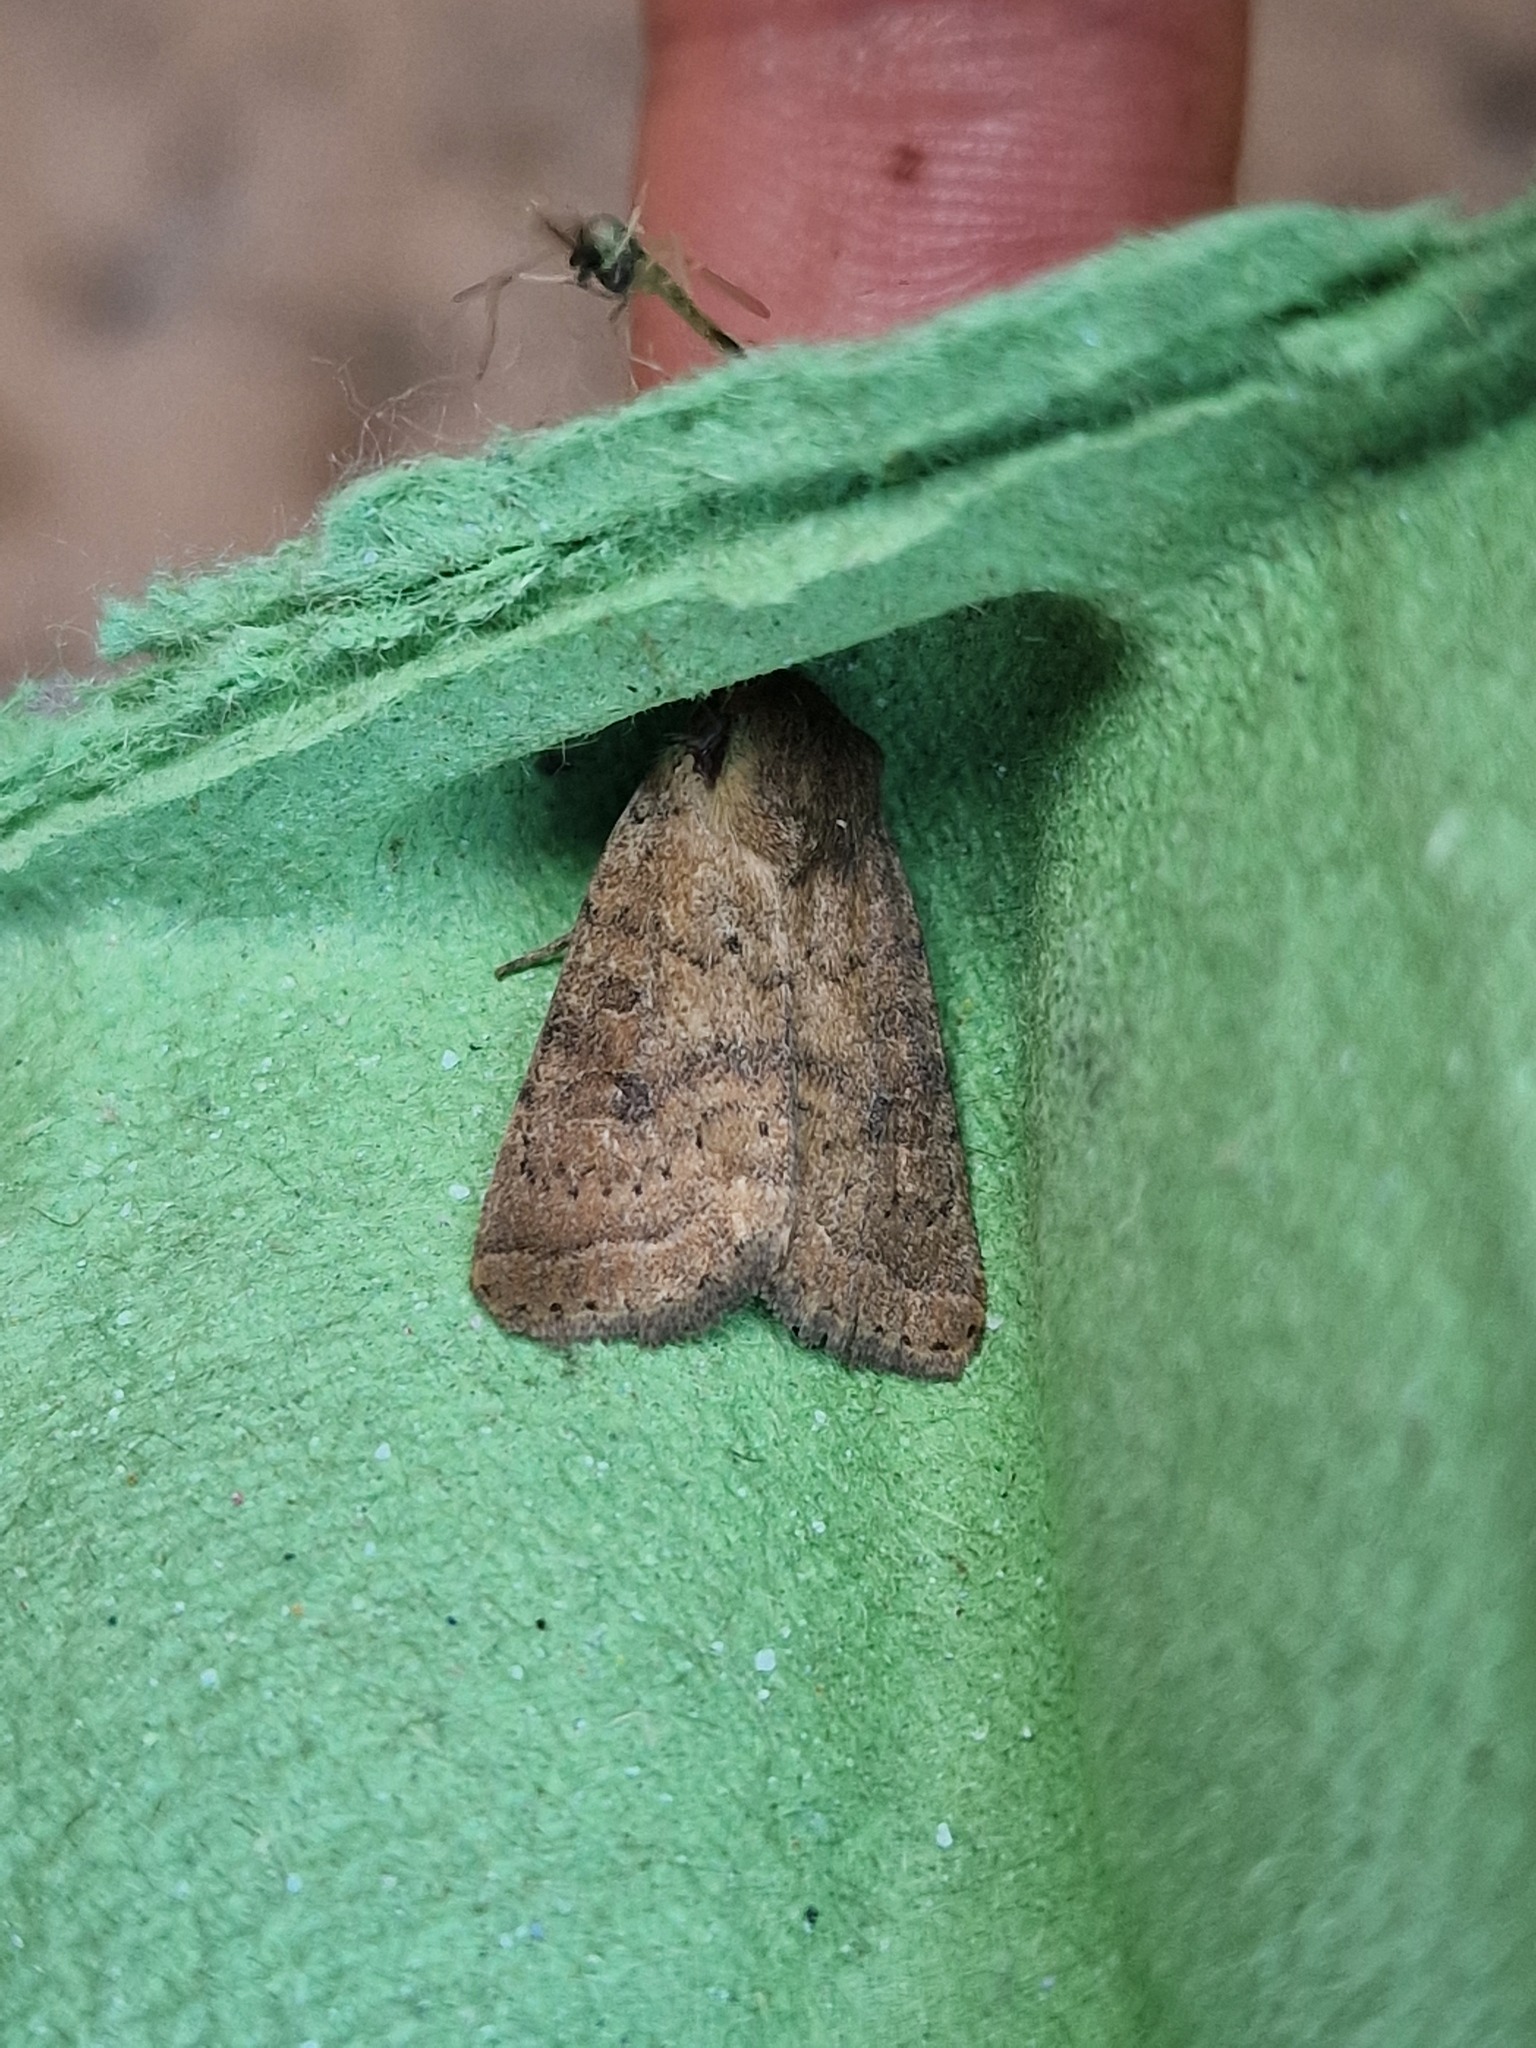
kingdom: Animalia
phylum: Arthropoda
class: Insecta
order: Lepidoptera
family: Noctuidae
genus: Hoplodrina
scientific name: Hoplodrina octogenaria
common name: Uncertain
